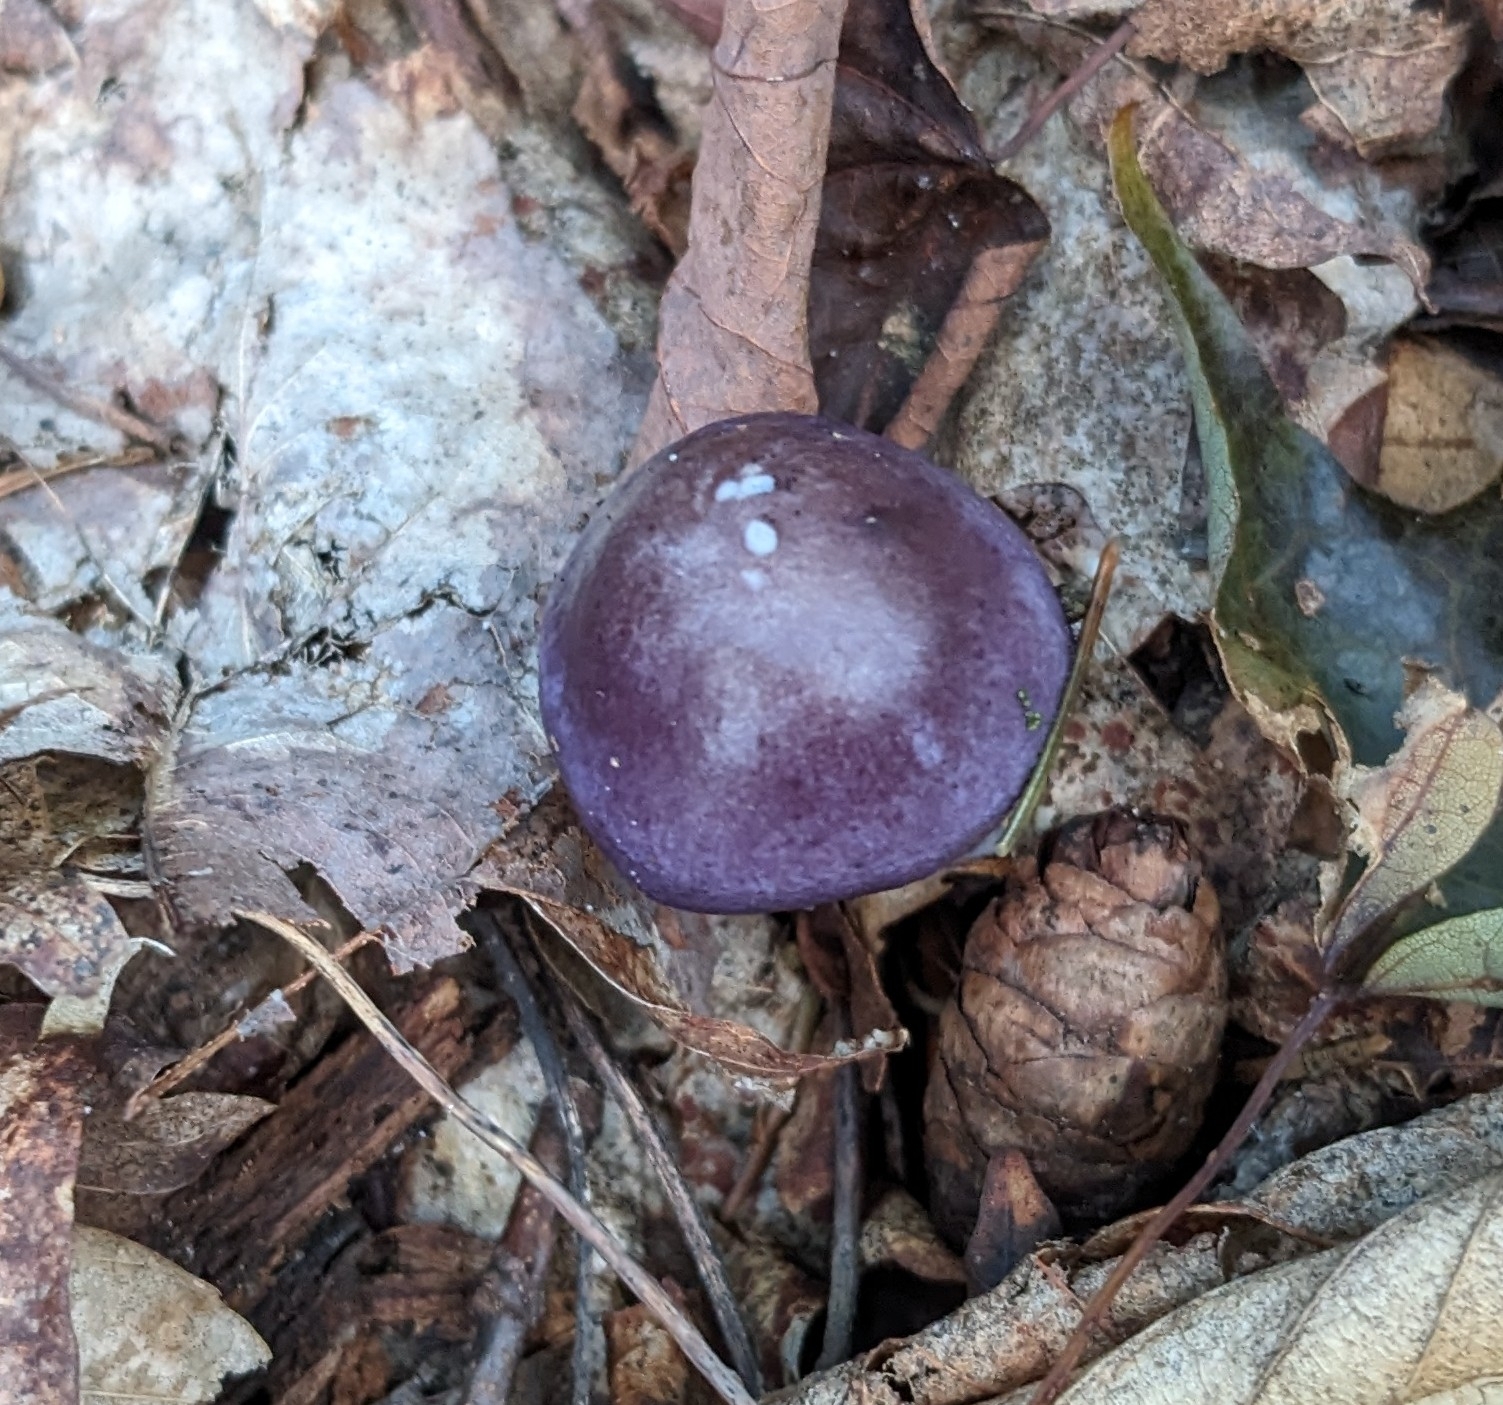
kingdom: Fungi
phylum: Basidiomycota
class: Agaricomycetes
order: Agaricales
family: Cortinariaceae
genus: Cortinarius
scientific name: Cortinarius iodes
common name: Viscid violet cort
